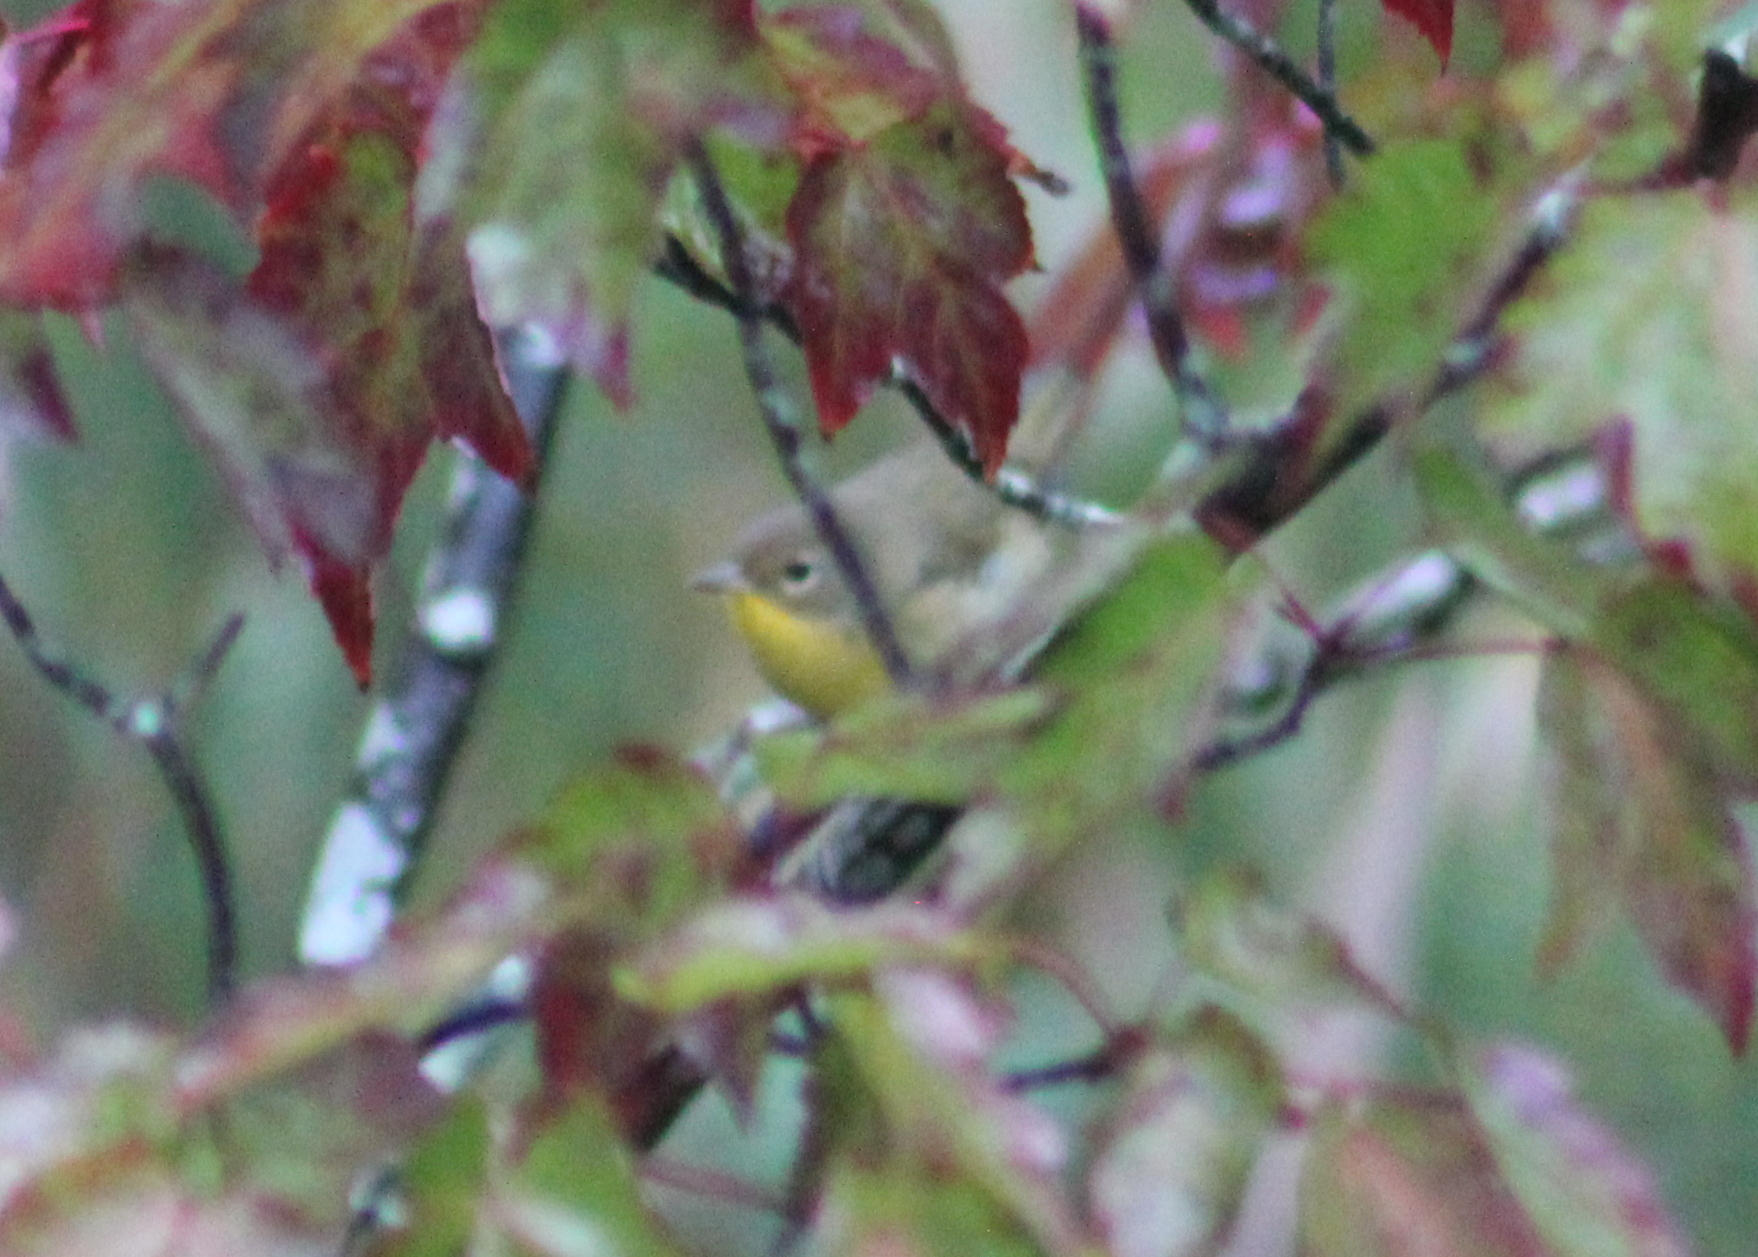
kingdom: Animalia
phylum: Chordata
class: Aves
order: Passeriformes
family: Parulidae
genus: Geothlypis
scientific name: Geothlypis trichas
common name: Common yellowthroat
